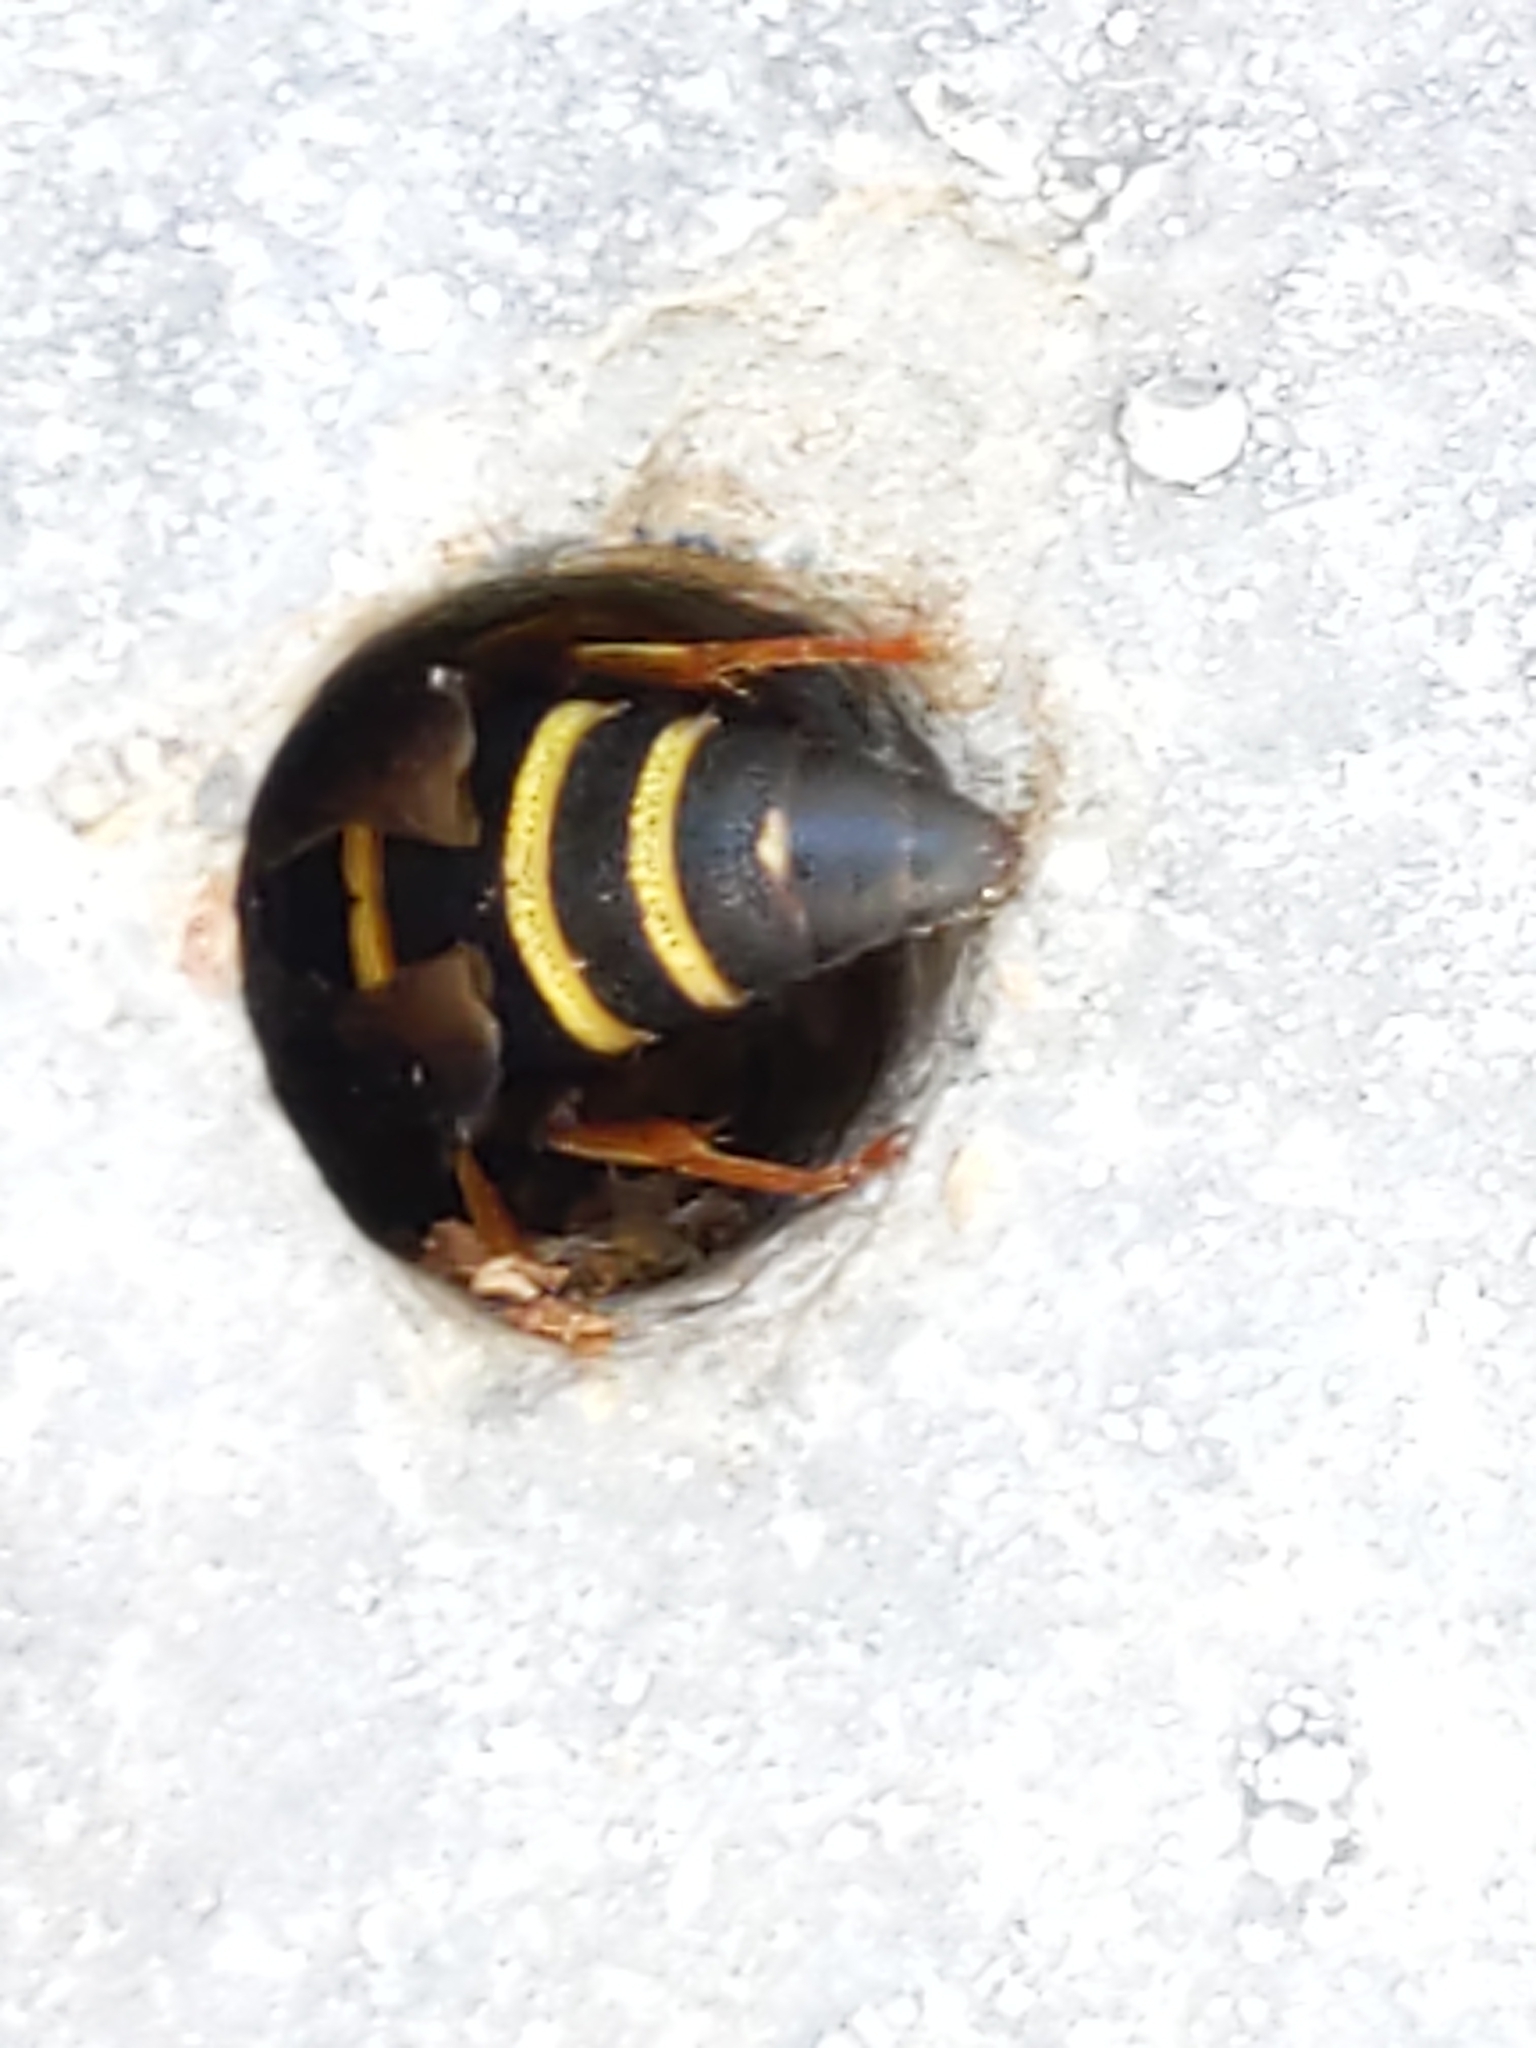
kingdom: Animalia
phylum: Arthropoda
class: Insecta
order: Hymenoptera
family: Eumenidae
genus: Euodynerus
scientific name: Euodynerus hidalgo
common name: Wasp
